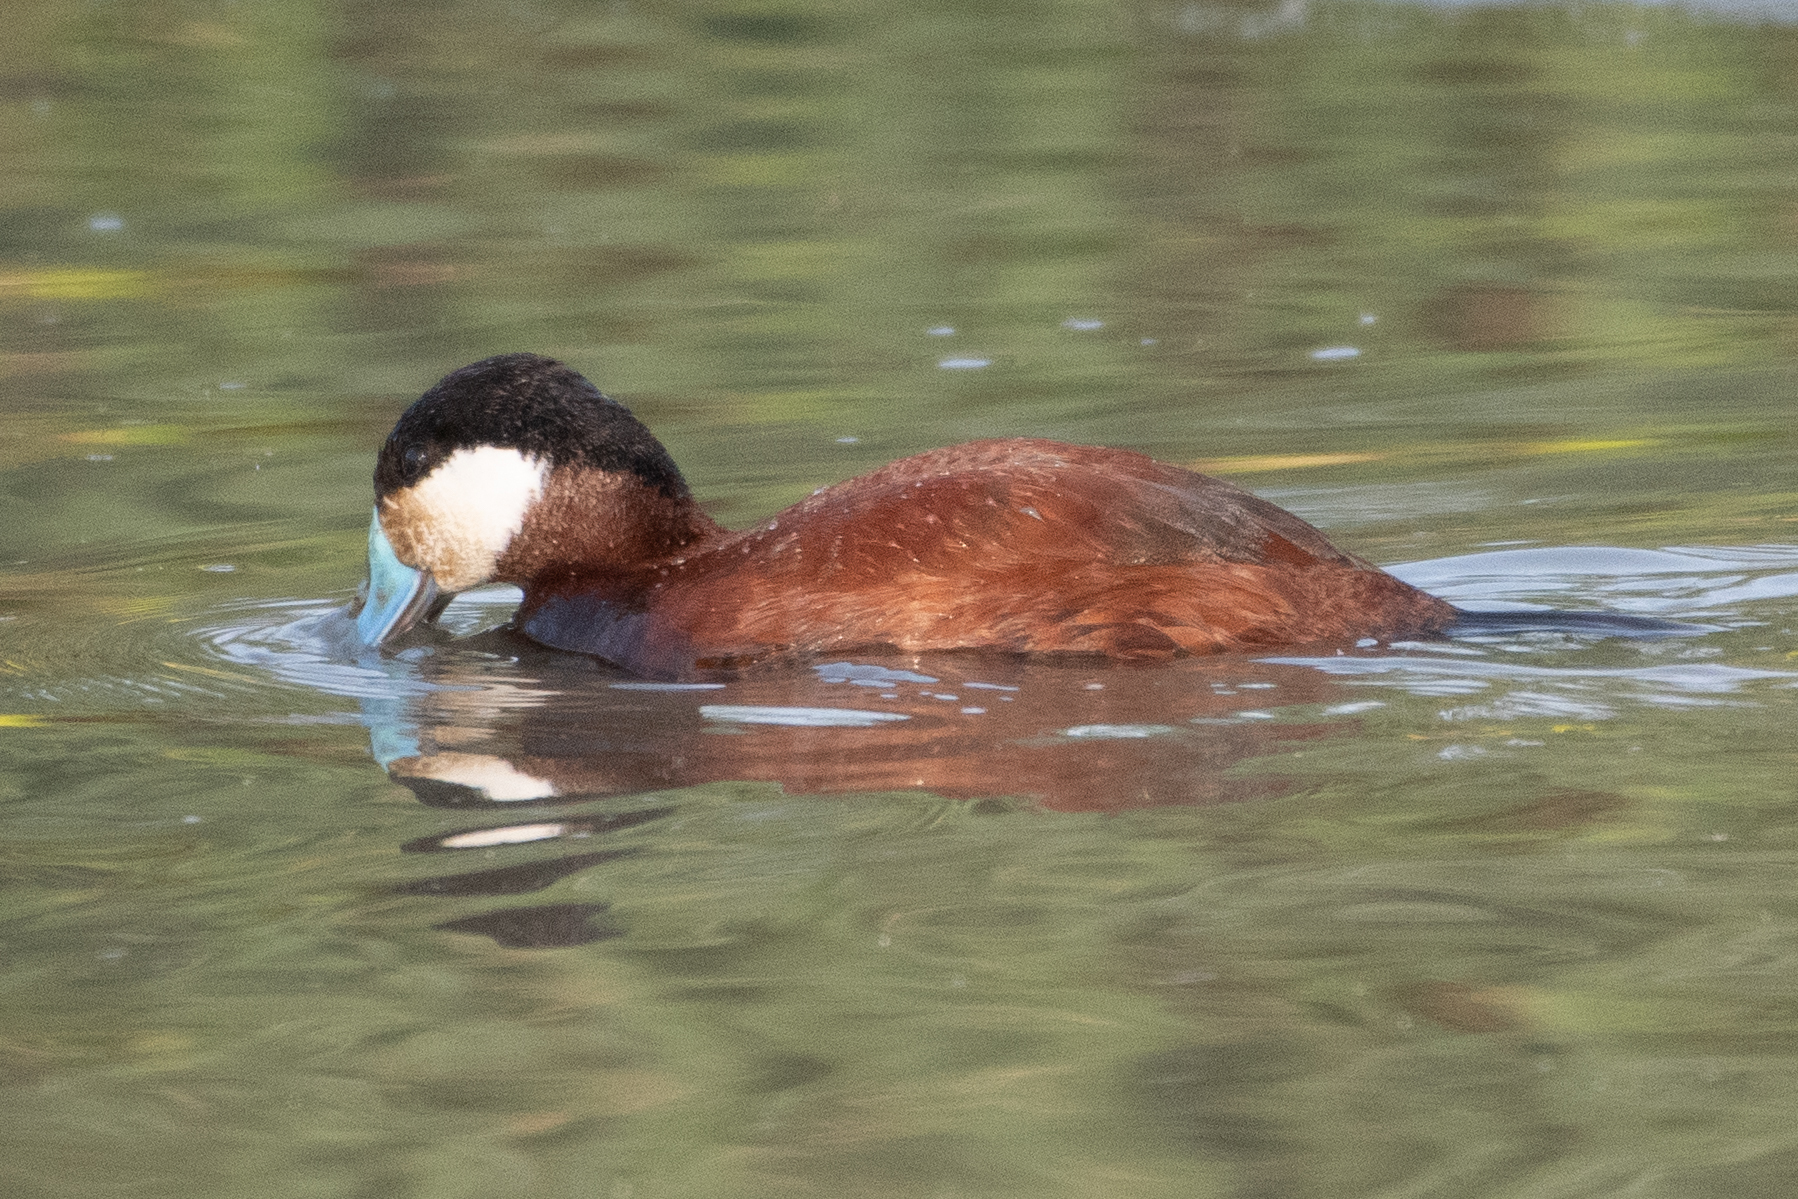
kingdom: Animalia
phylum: Chordata
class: Aves
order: Anseriformes
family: Anatidae
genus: Oxyura
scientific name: Oxyura jamaicensis
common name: Ruddy duck
